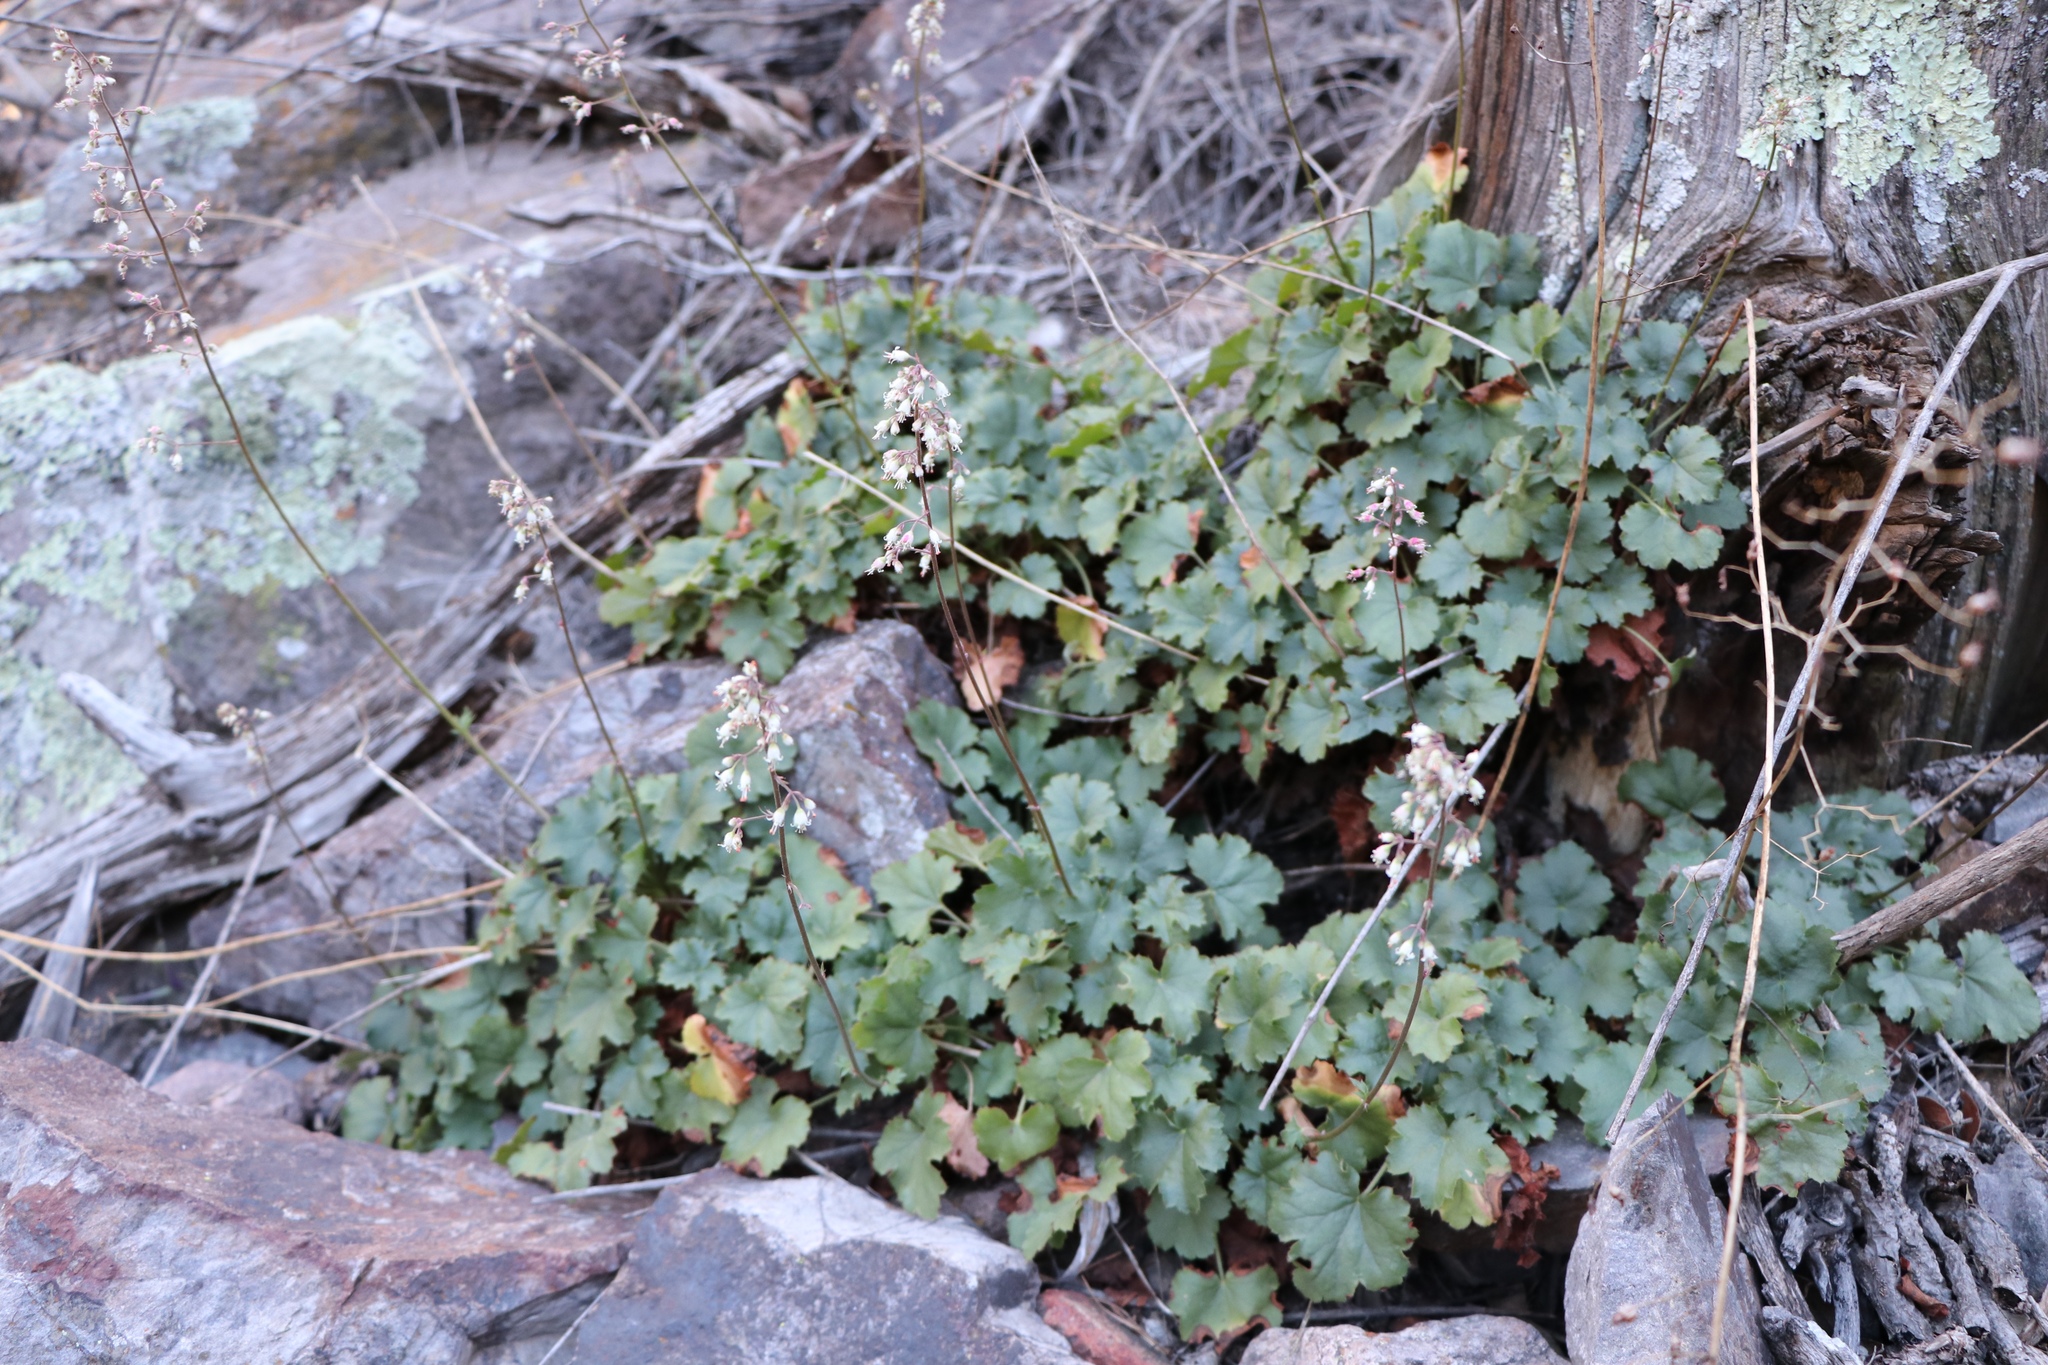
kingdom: Plantae
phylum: Tracheophyta
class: Magnoliopsida
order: Saxifragales
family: Saxifragaceae
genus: Heuchera
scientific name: Heuchera rubescens
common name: Jack-o'the-rocks
